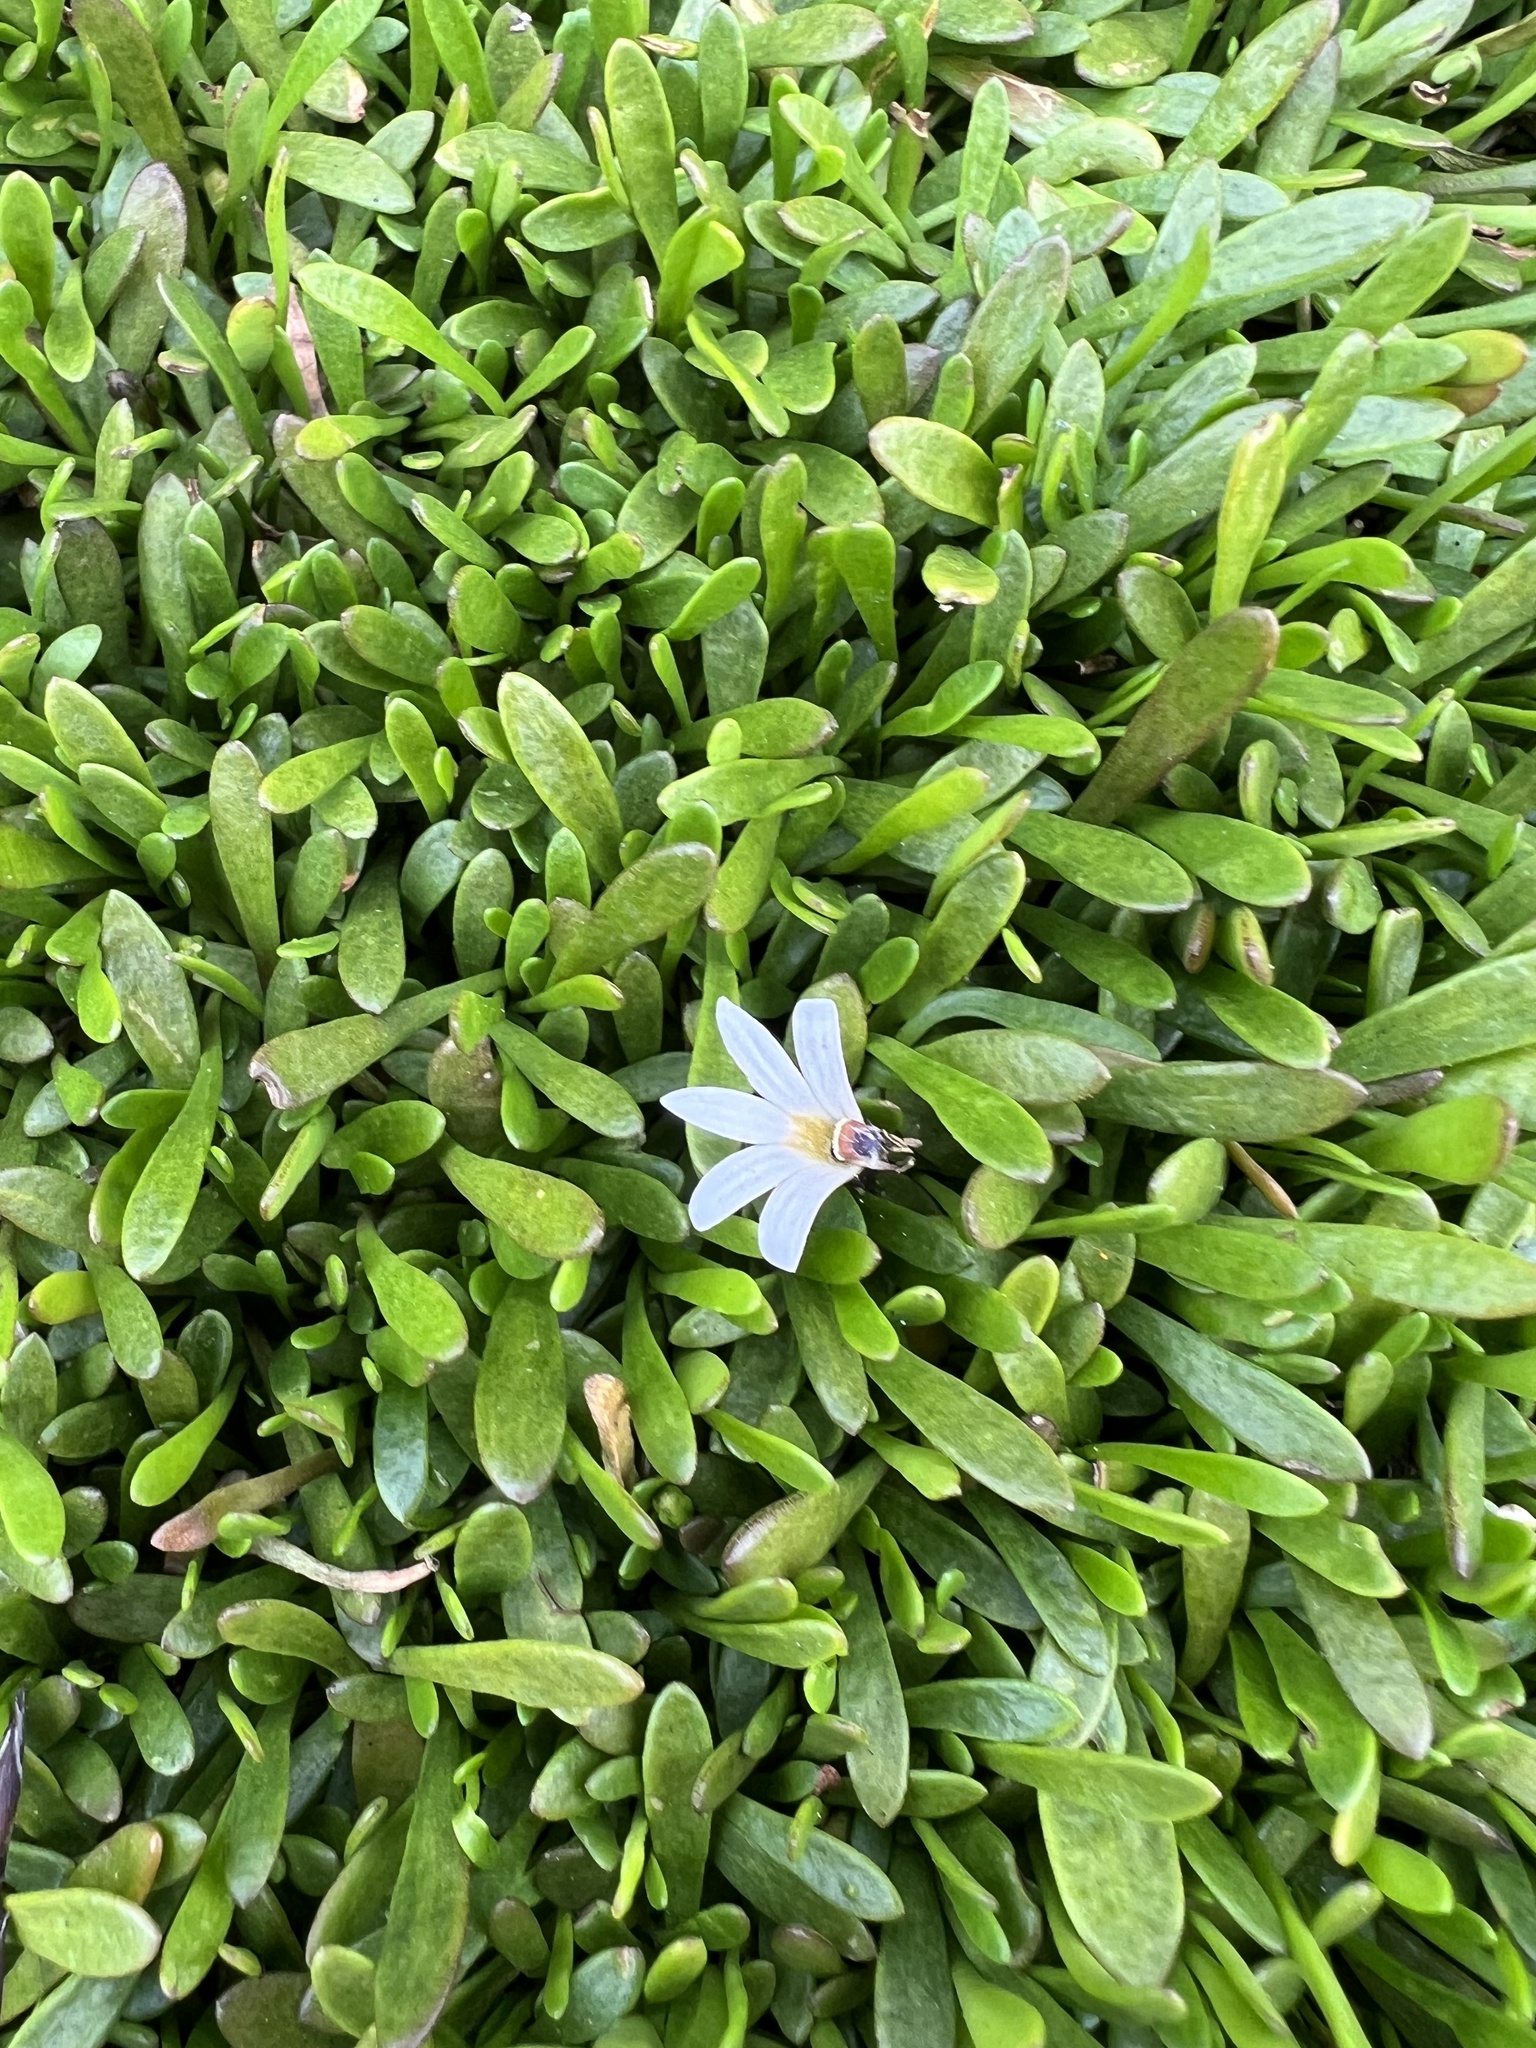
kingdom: Plantae
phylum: Tracheophyta
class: Magnoliopsida
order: Asterales
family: Goodeniaceae
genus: Goodenia
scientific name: Goodenia radicans
